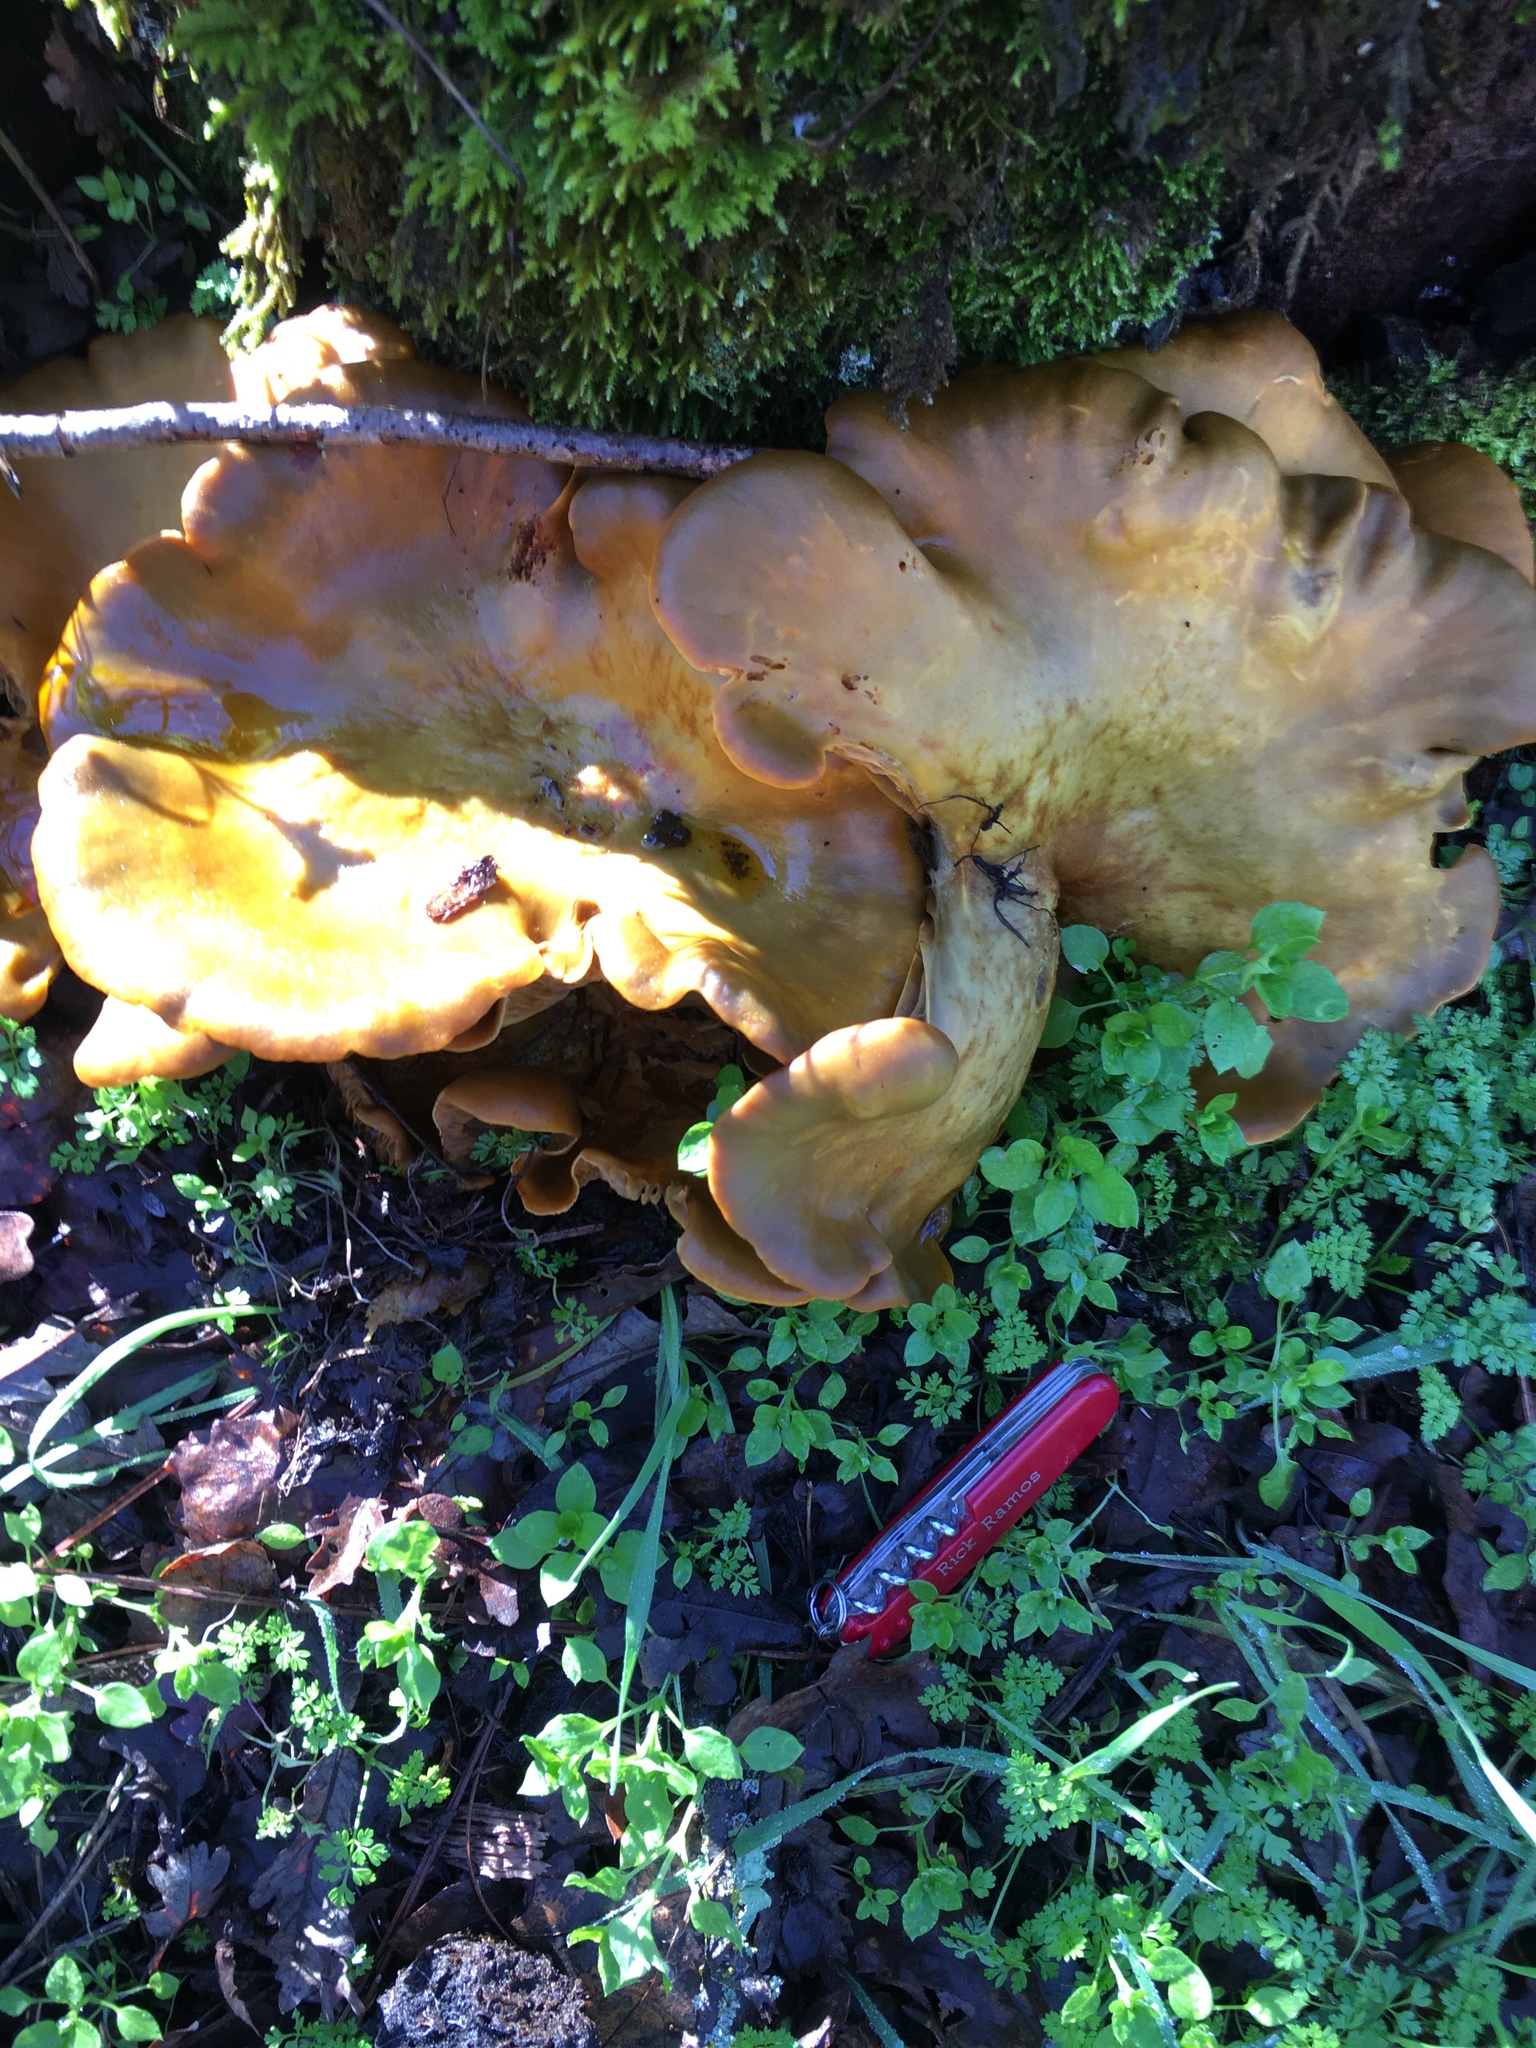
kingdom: Fungi
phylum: Basidiomycota
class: Agaricomycetes
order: Agaricales
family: Omphalotaceae
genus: Omphalotus
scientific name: Omphalotus olivascens
